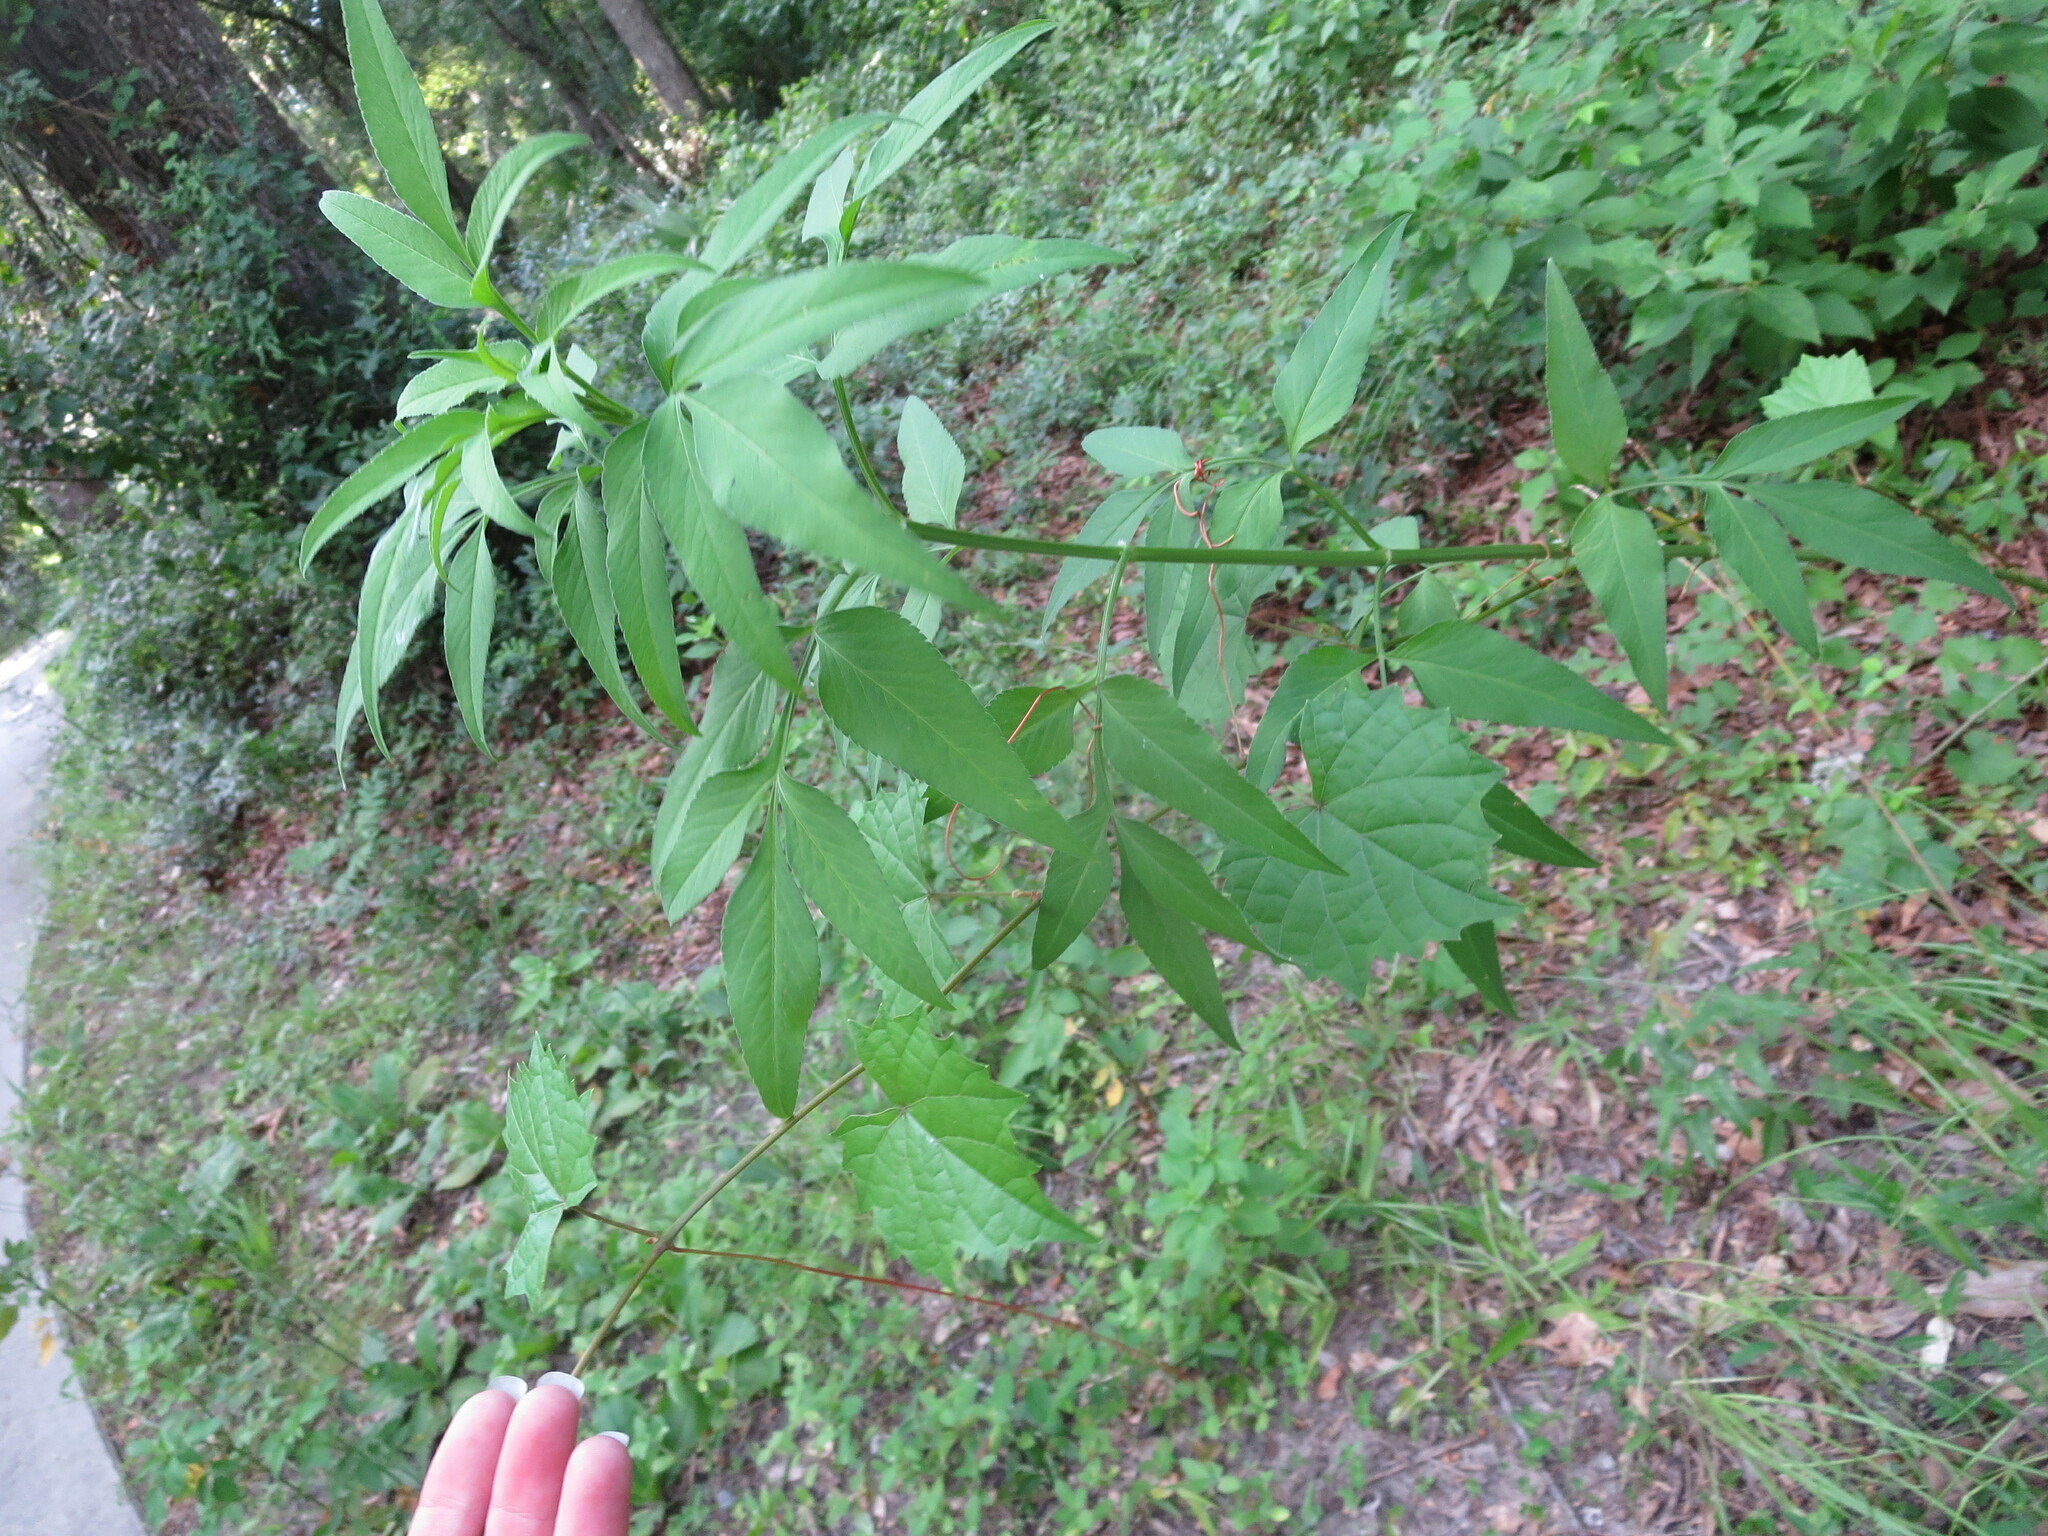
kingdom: Plantae
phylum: Tracheophyta
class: Magnoliopsida
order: Vitales
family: Vitaceae
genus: Vitis
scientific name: Vitis rotundifolia
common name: Muscadine grape
